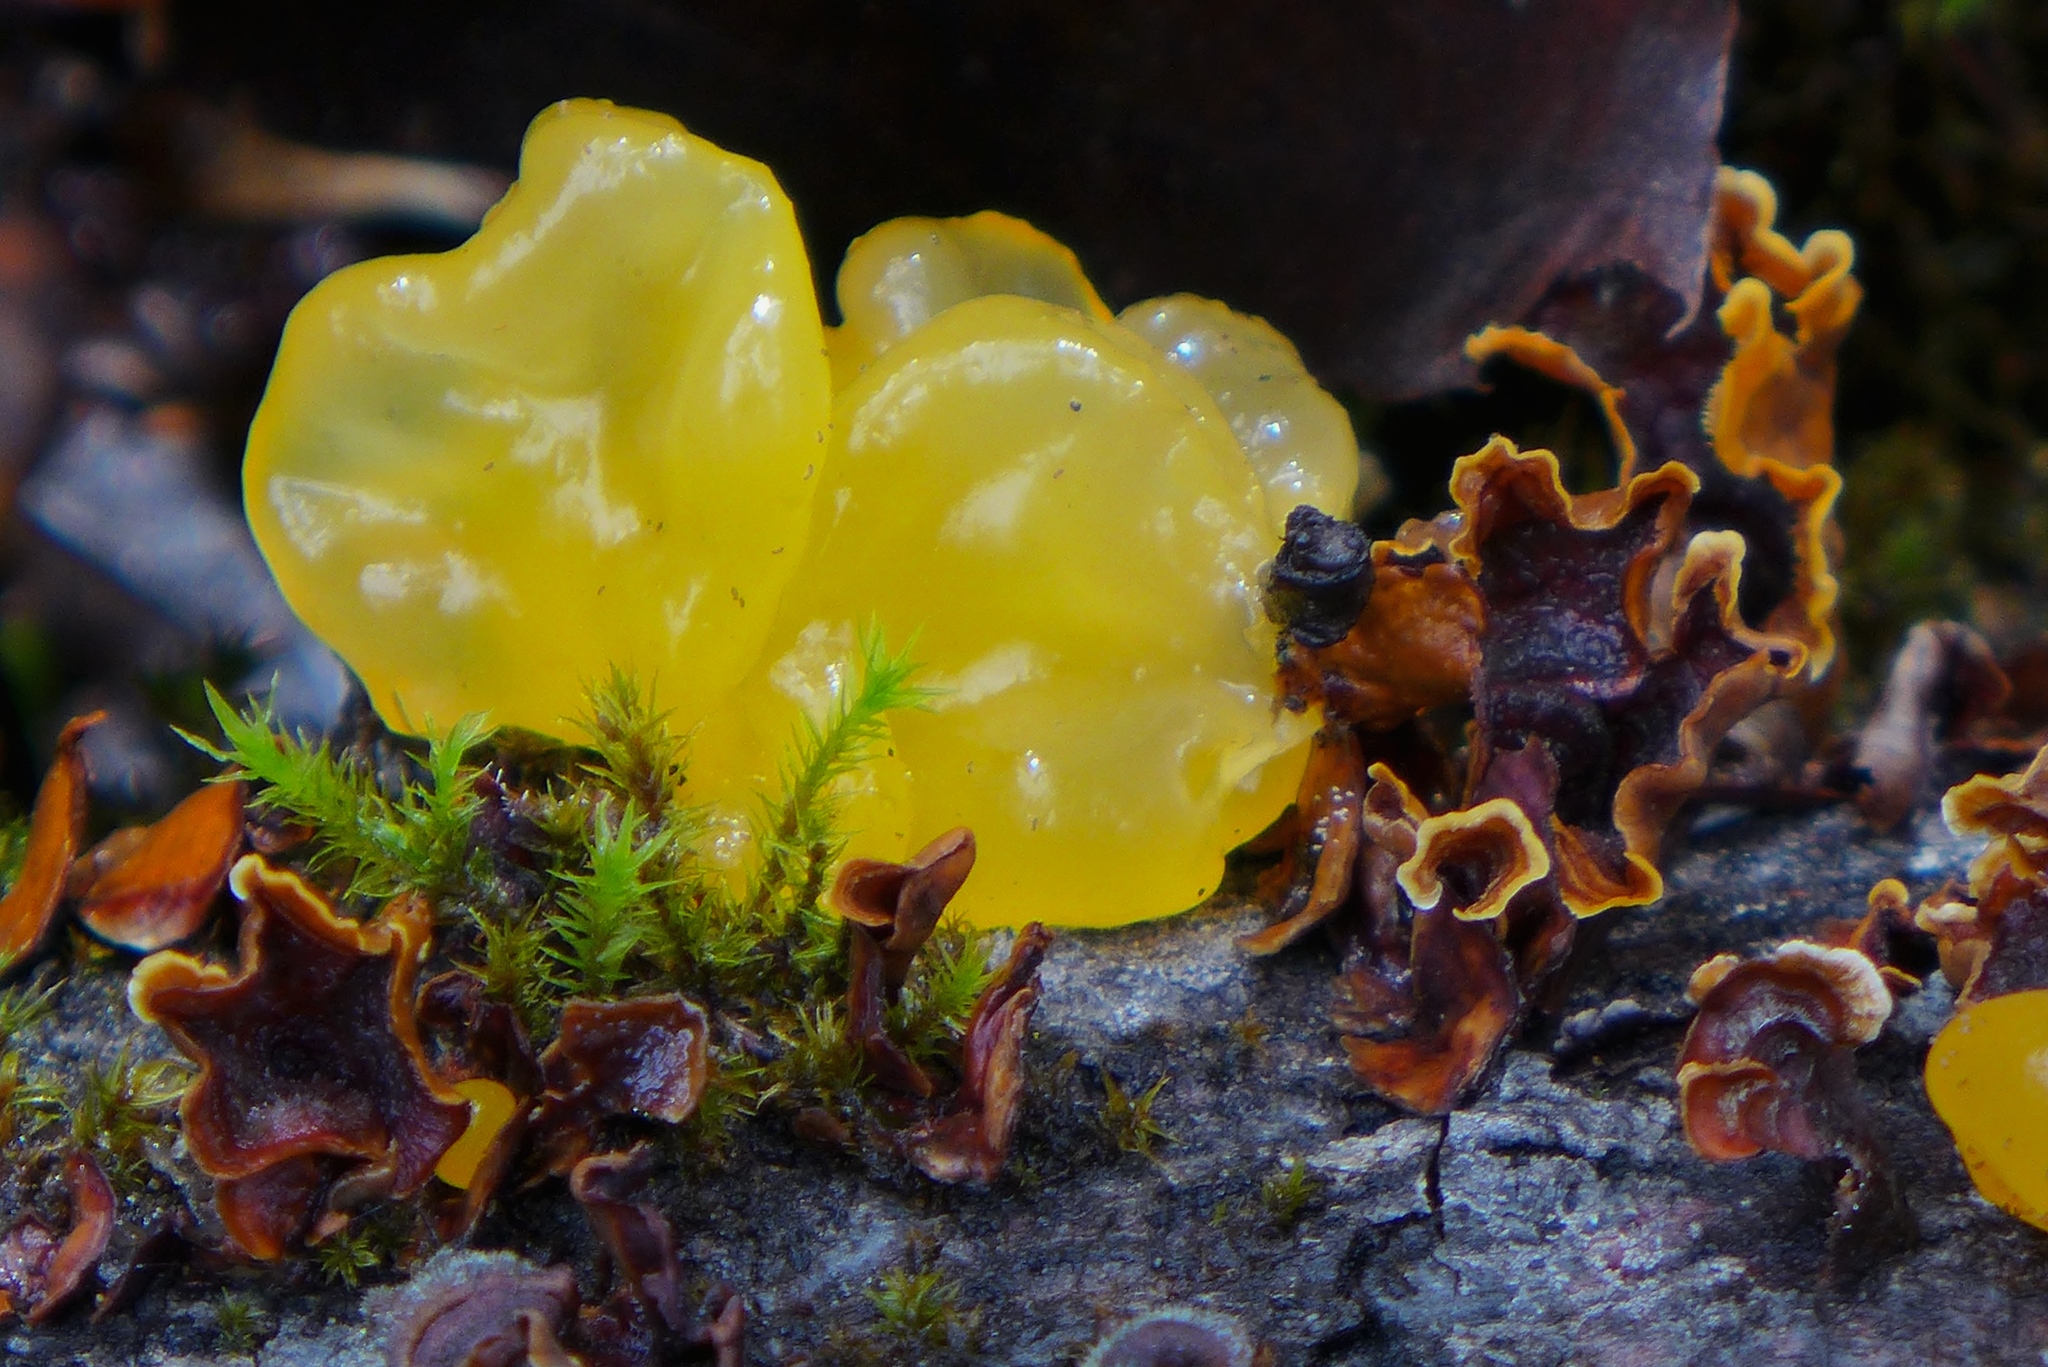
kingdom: Fungi
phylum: Basidiomycota
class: Tremellomycetes
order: Tremellales
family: Naemateliaceae
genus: Naematelia
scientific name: Naematelia aurantia
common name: Golden ear
